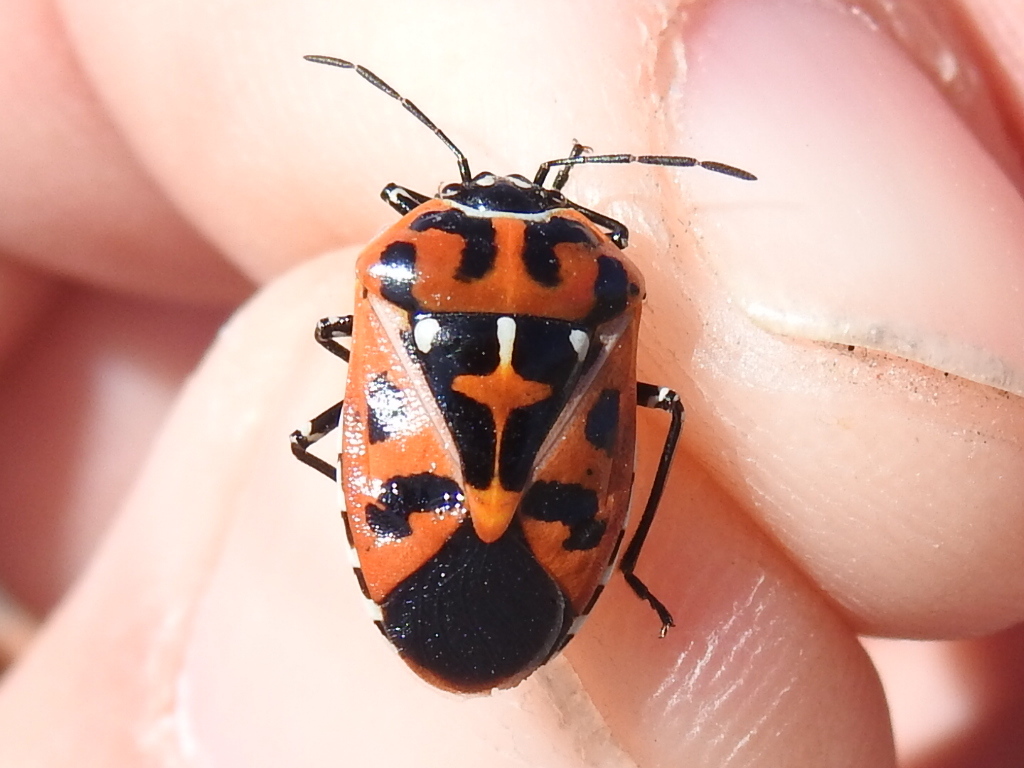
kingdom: Animalia
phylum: Arthropoda
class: Insecta
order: Hemiptera
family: Pentatomidae
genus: Murgantia
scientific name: Murgantia histrionica
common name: Harlequin bug
